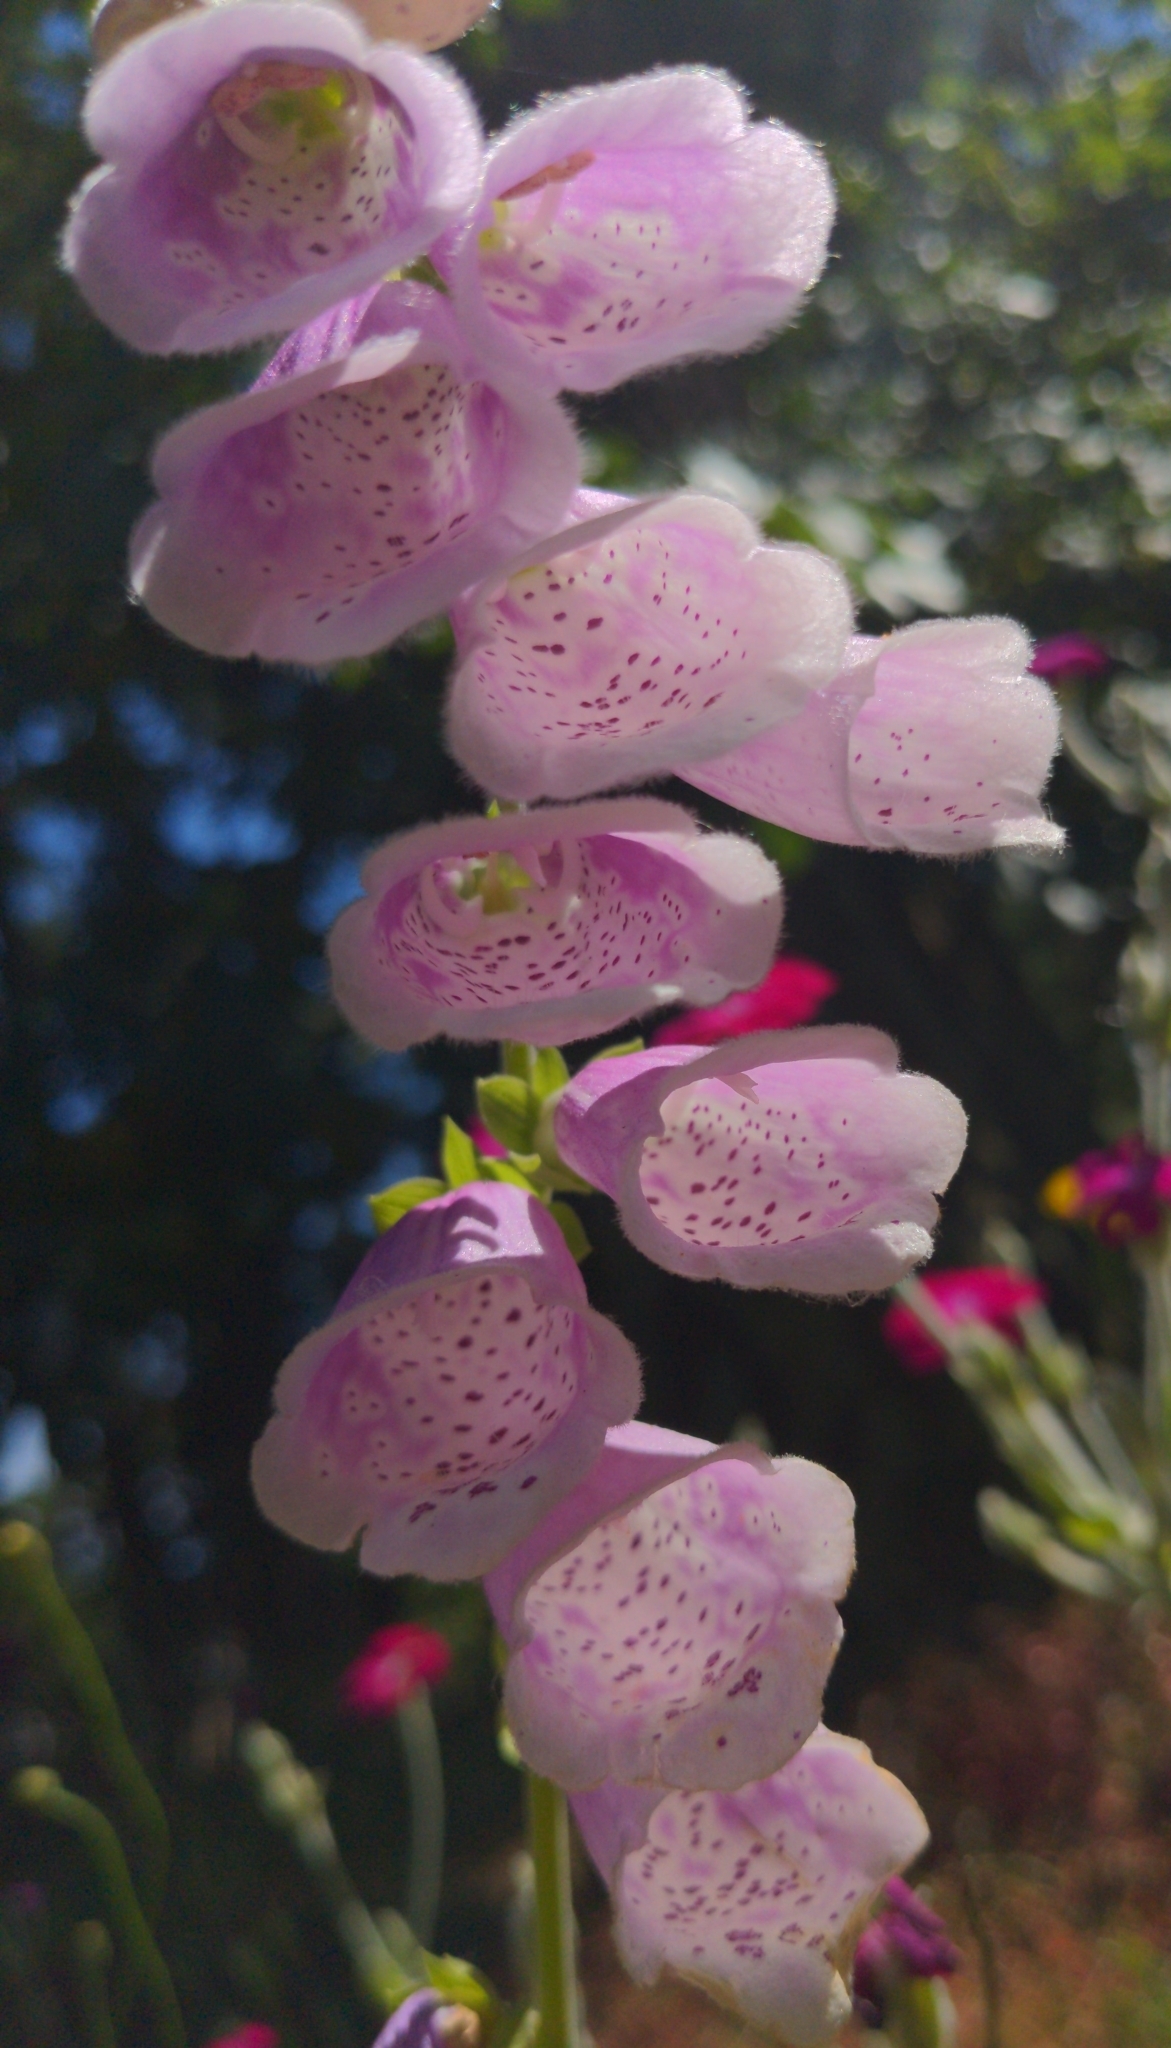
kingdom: Plantae
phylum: Tracheophyta
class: Magnoliopsida
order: Lamiales
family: Plantaginaceae
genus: Digitalis
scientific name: Digitalis purpurea
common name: Foxglove
